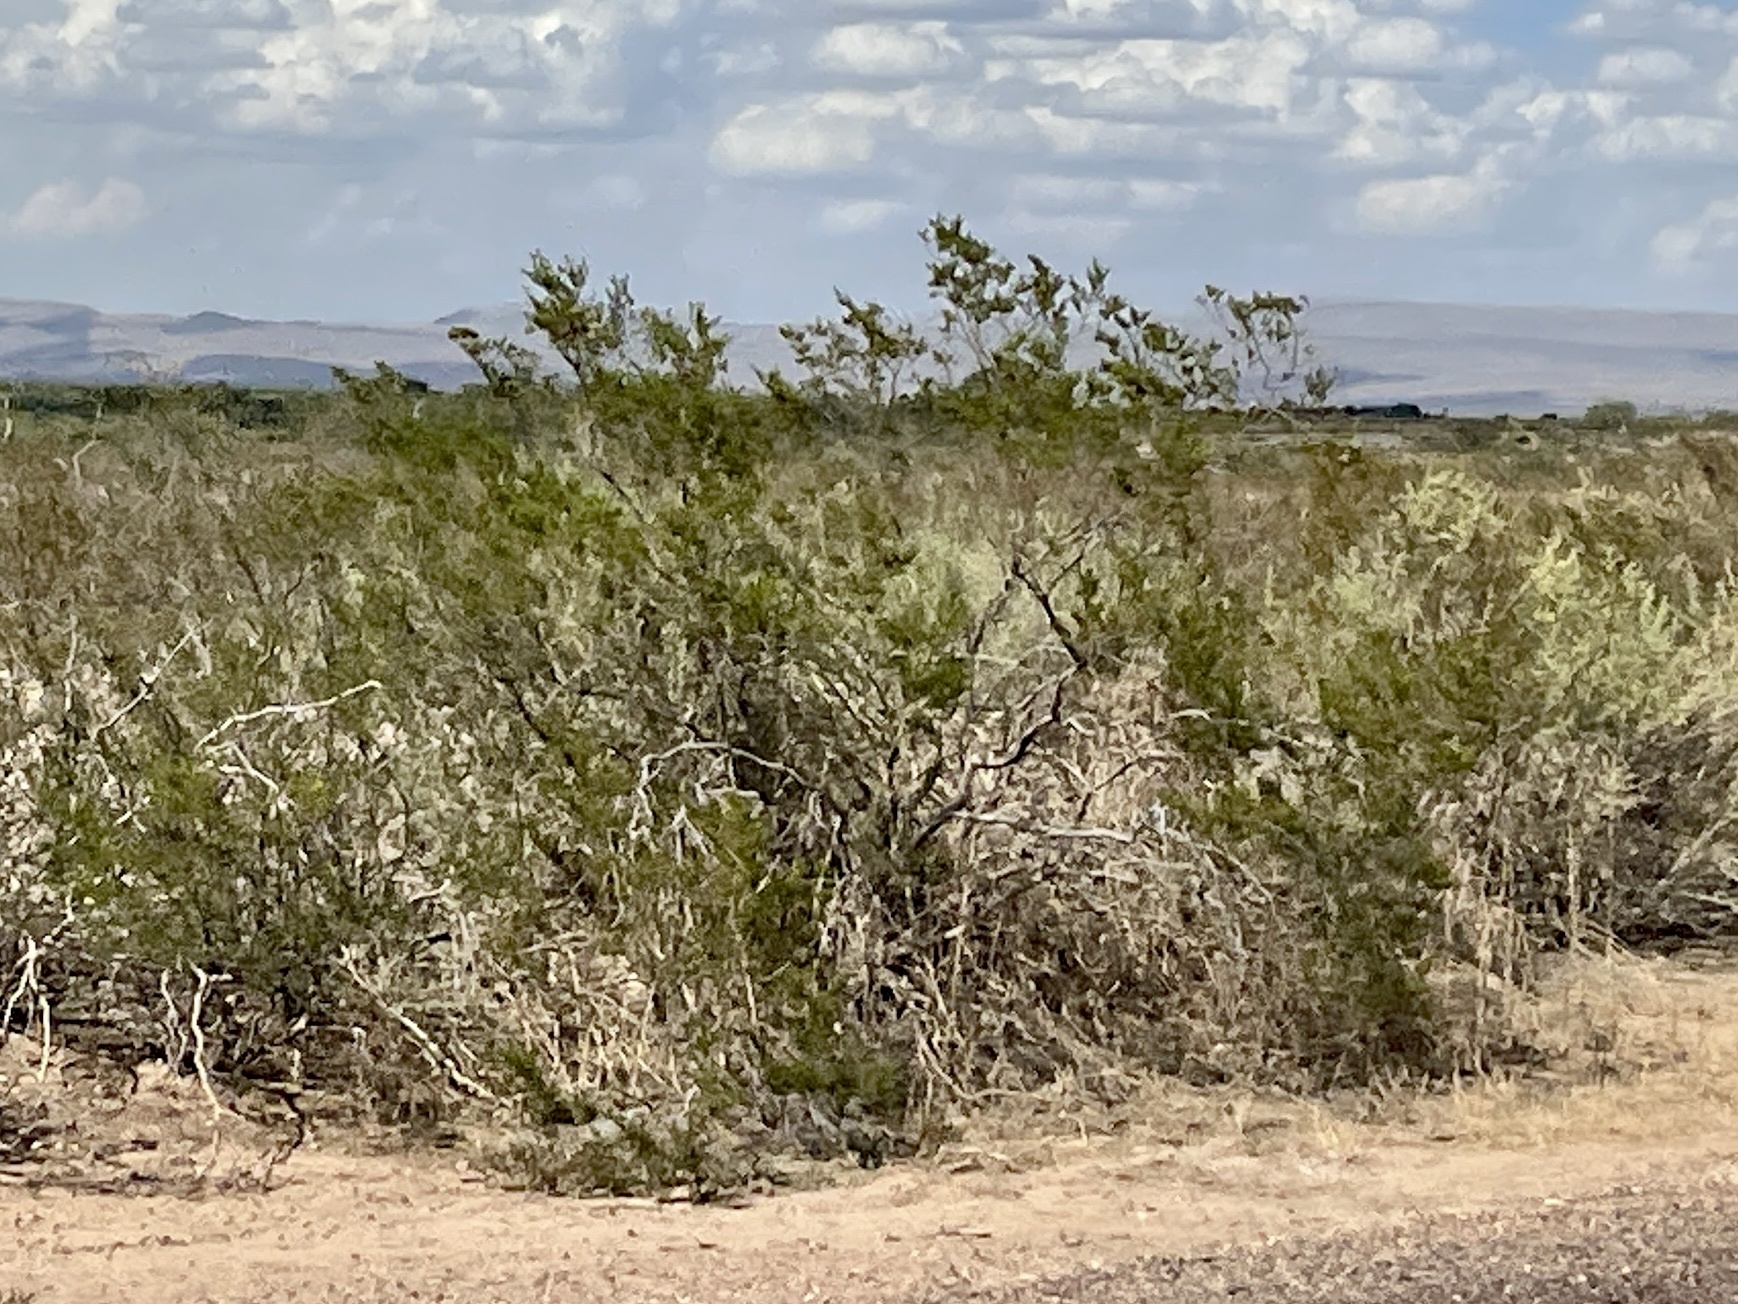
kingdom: Plantae
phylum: Tracheophyta
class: Magnoliopsida
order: Zygophyllales
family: Zygophyllaceae
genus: Larrea
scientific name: Larrea tridentata
